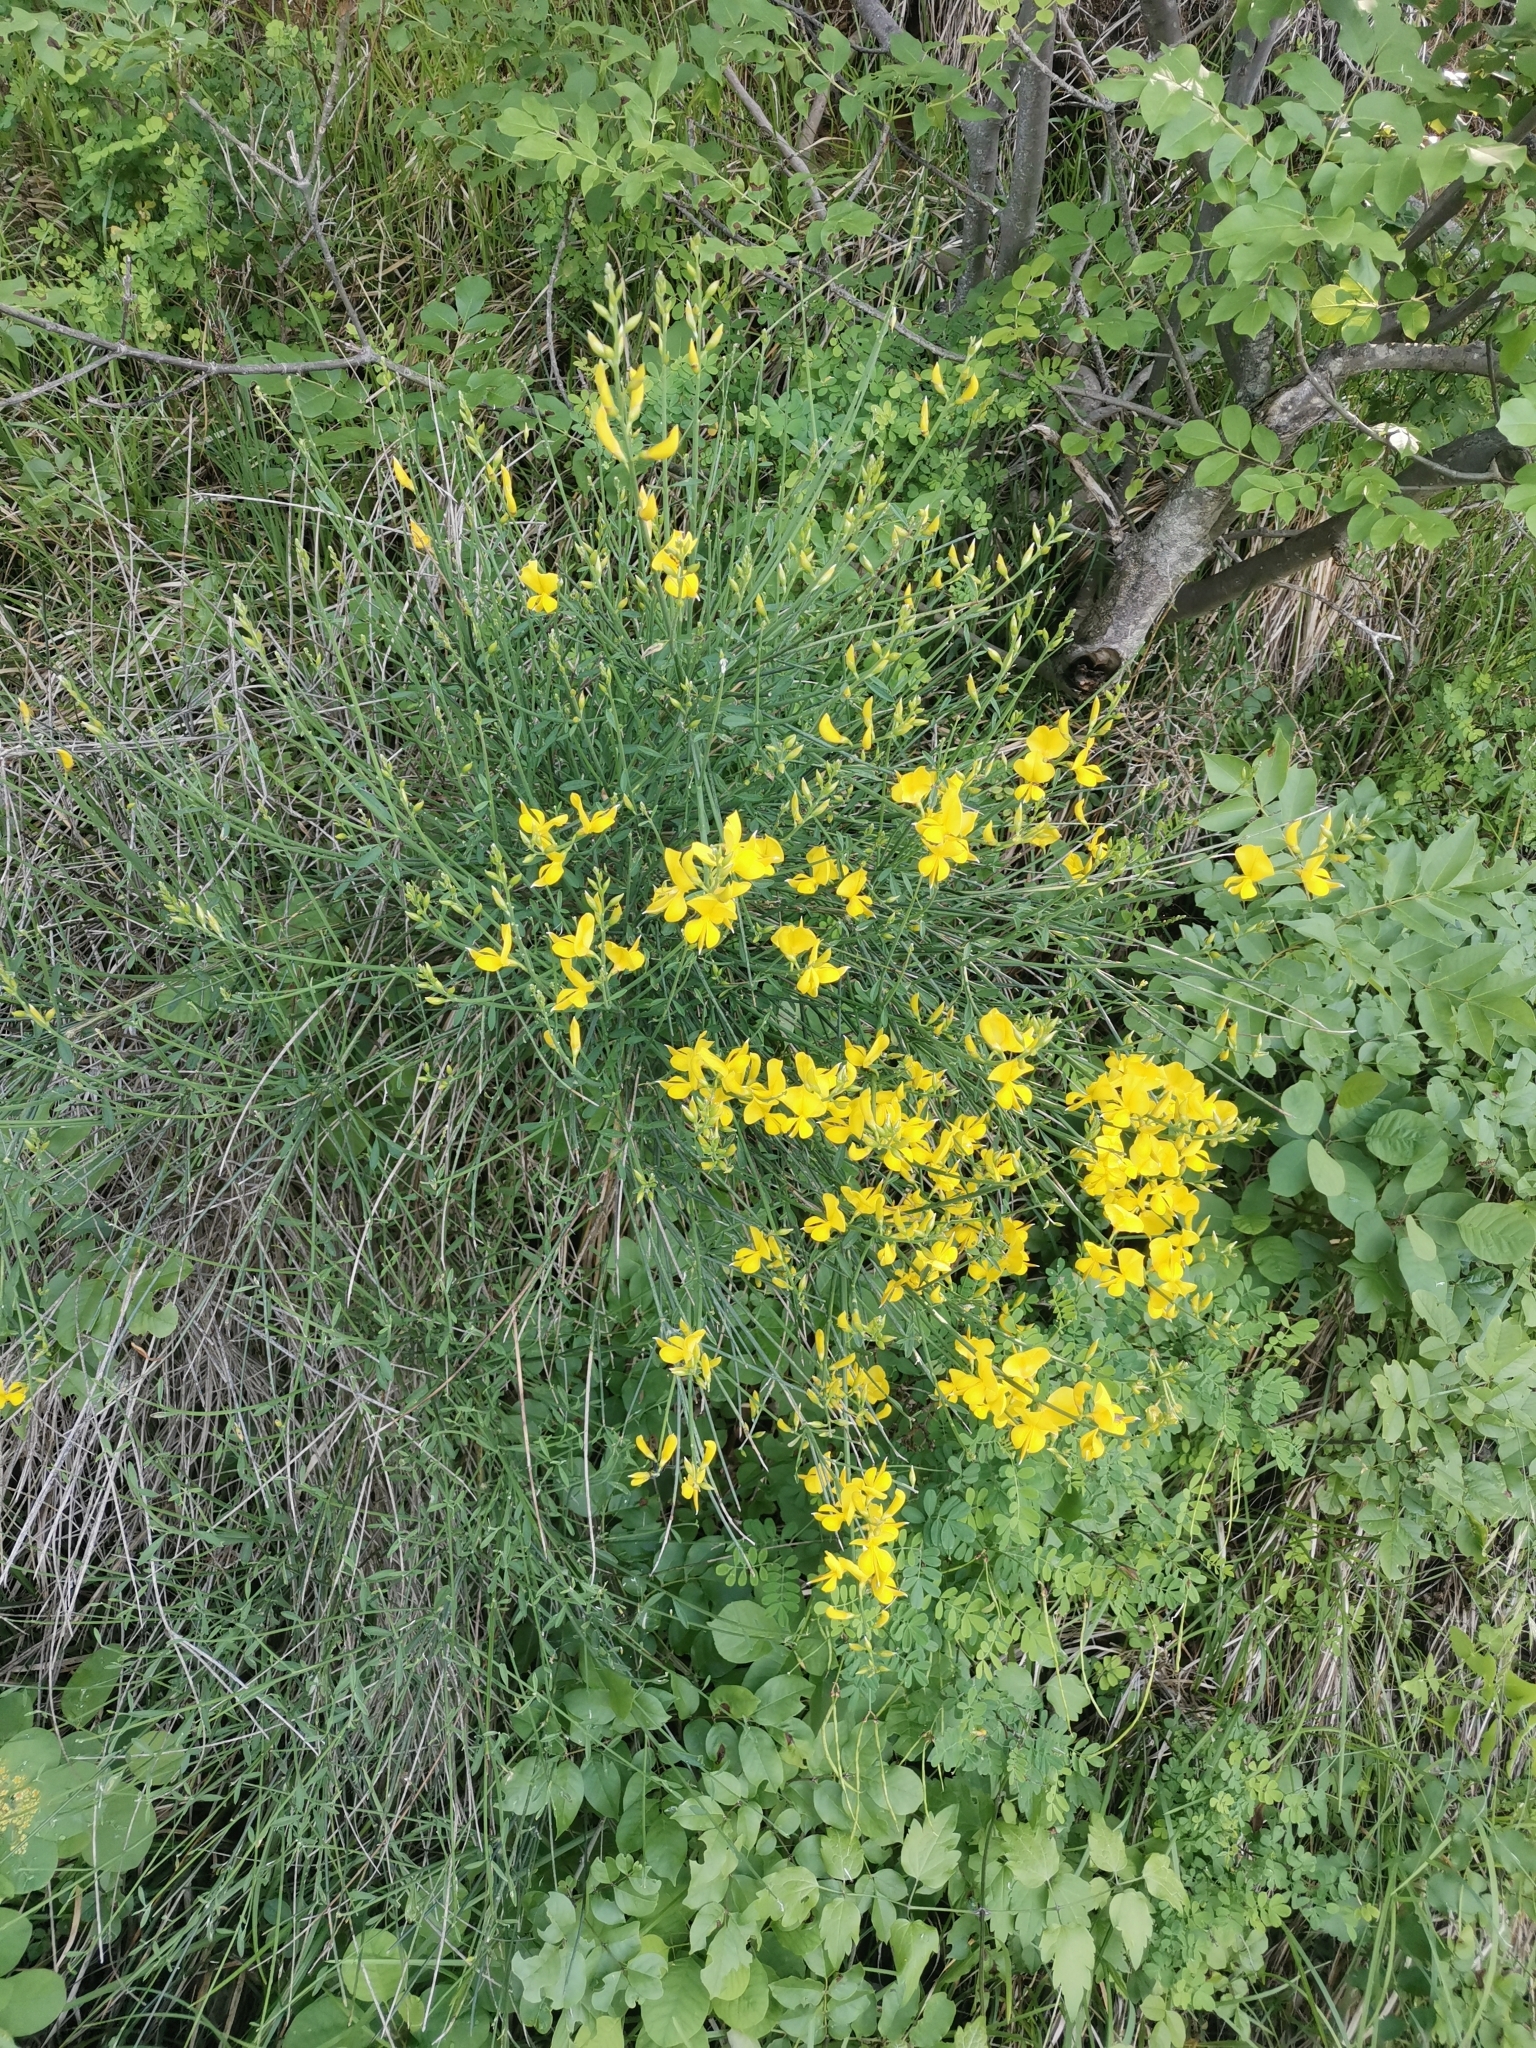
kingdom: Plantae
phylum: Tracheophyta
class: Magnoliopsida
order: Fabales
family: Fabaceae
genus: Spartium
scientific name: Spartium junceum
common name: Spanish broom
